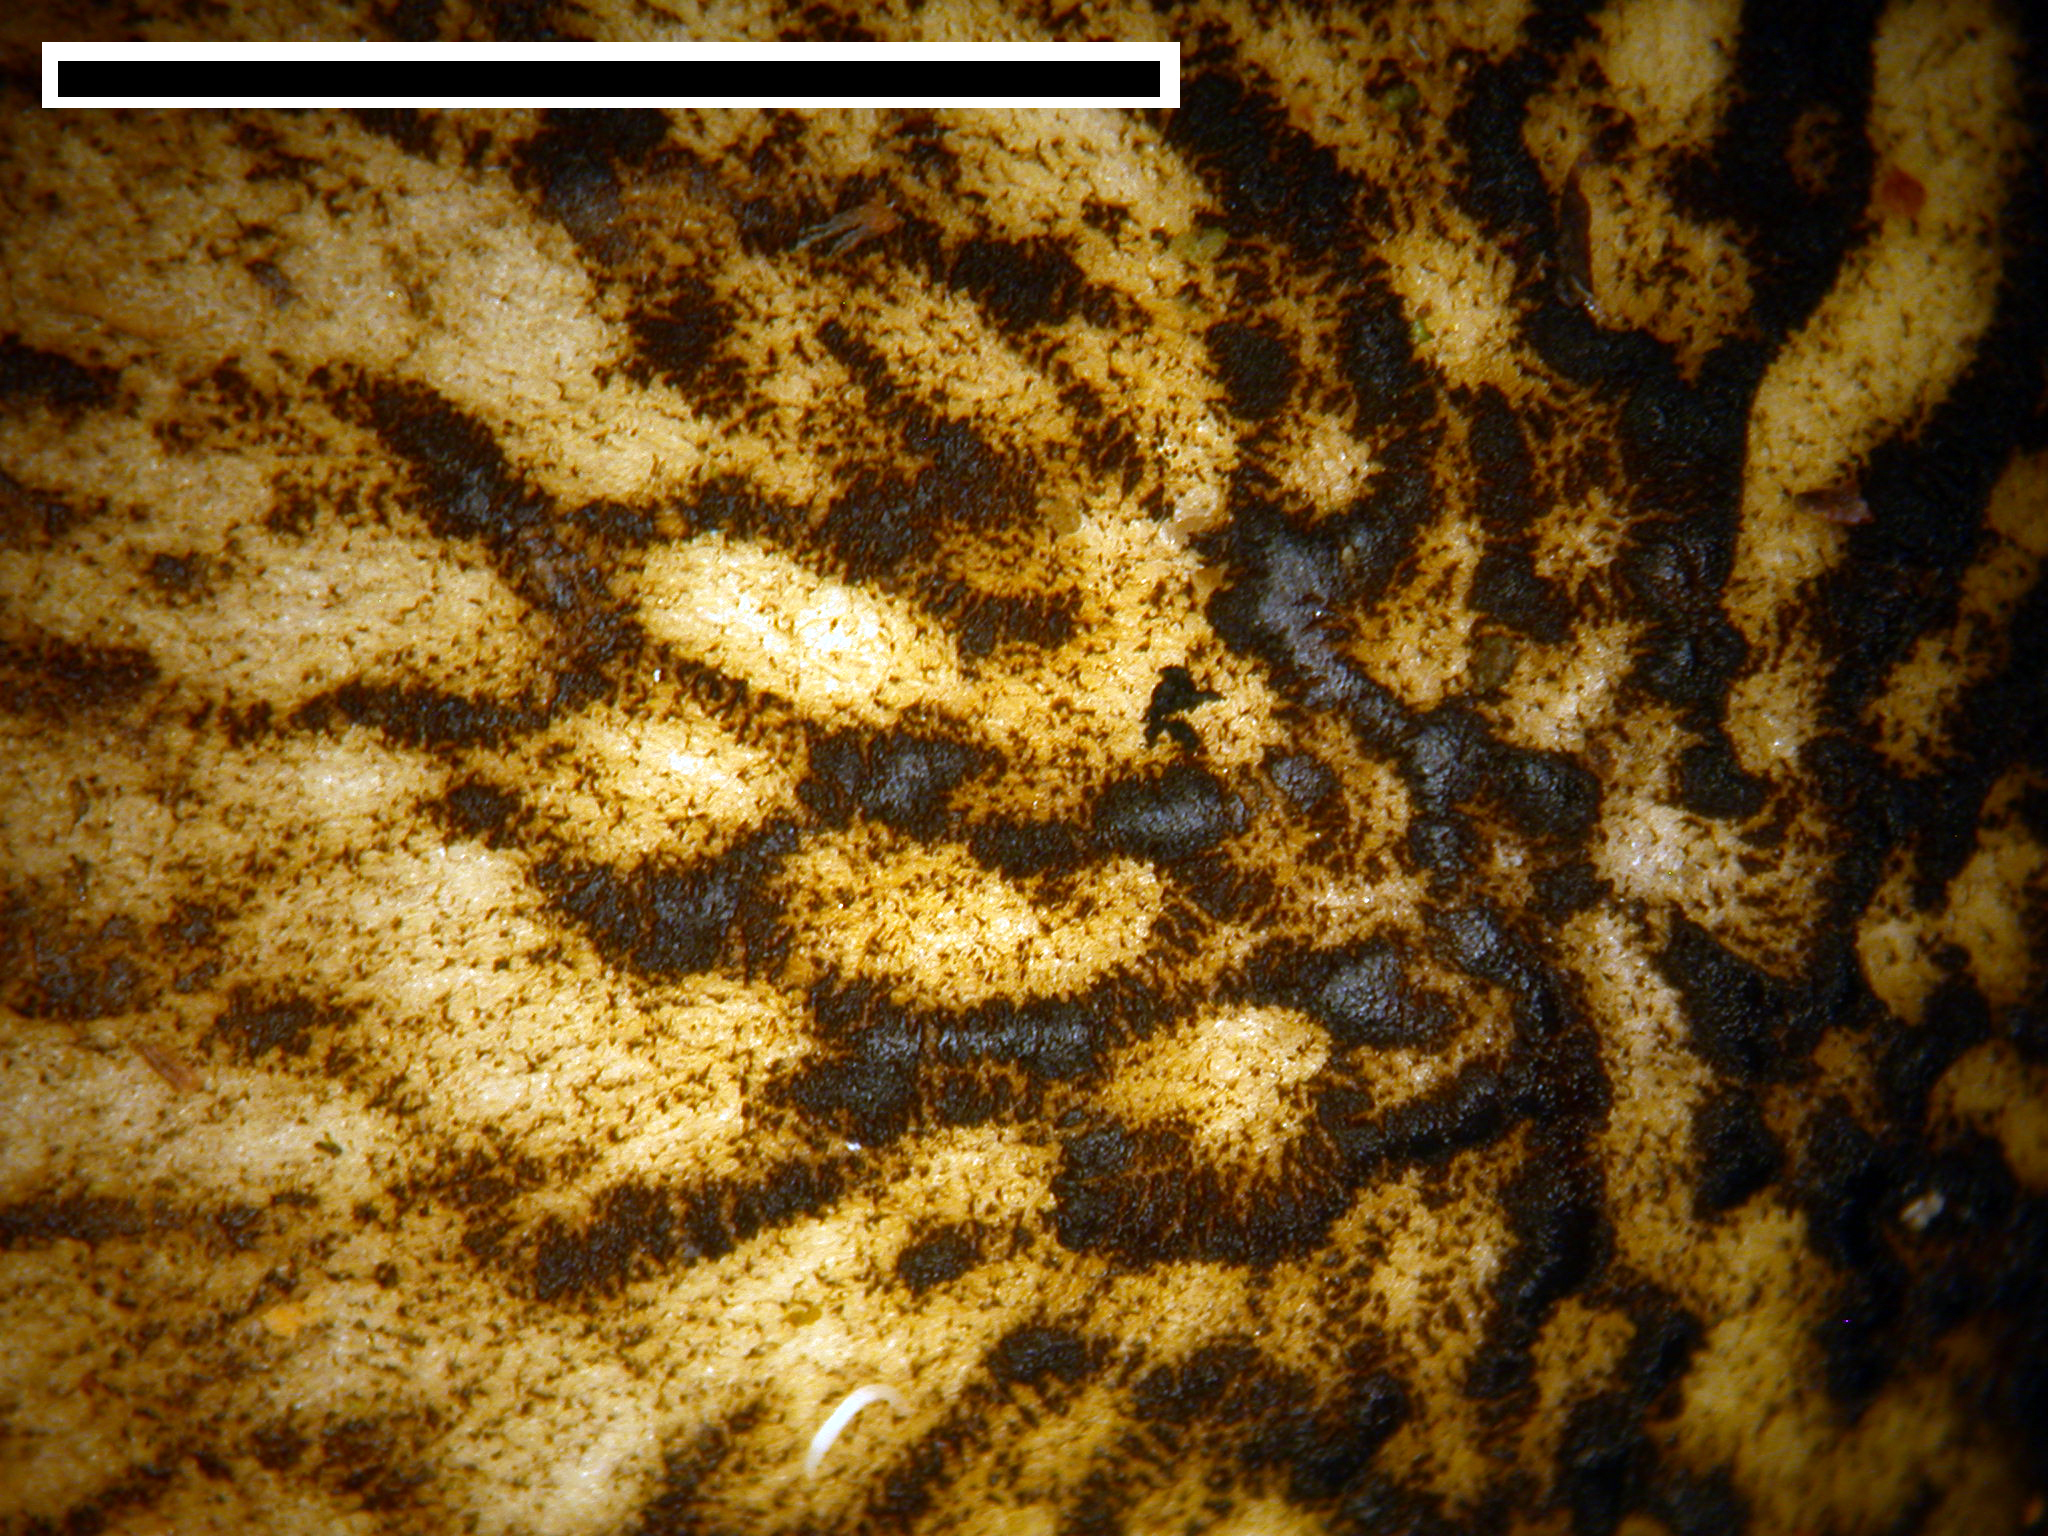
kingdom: Fungi
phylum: Basidiomycota
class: Agaricomycetes
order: Agaricales
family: Pluteaceae
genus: Pluteus
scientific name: Pluteus readiarum
